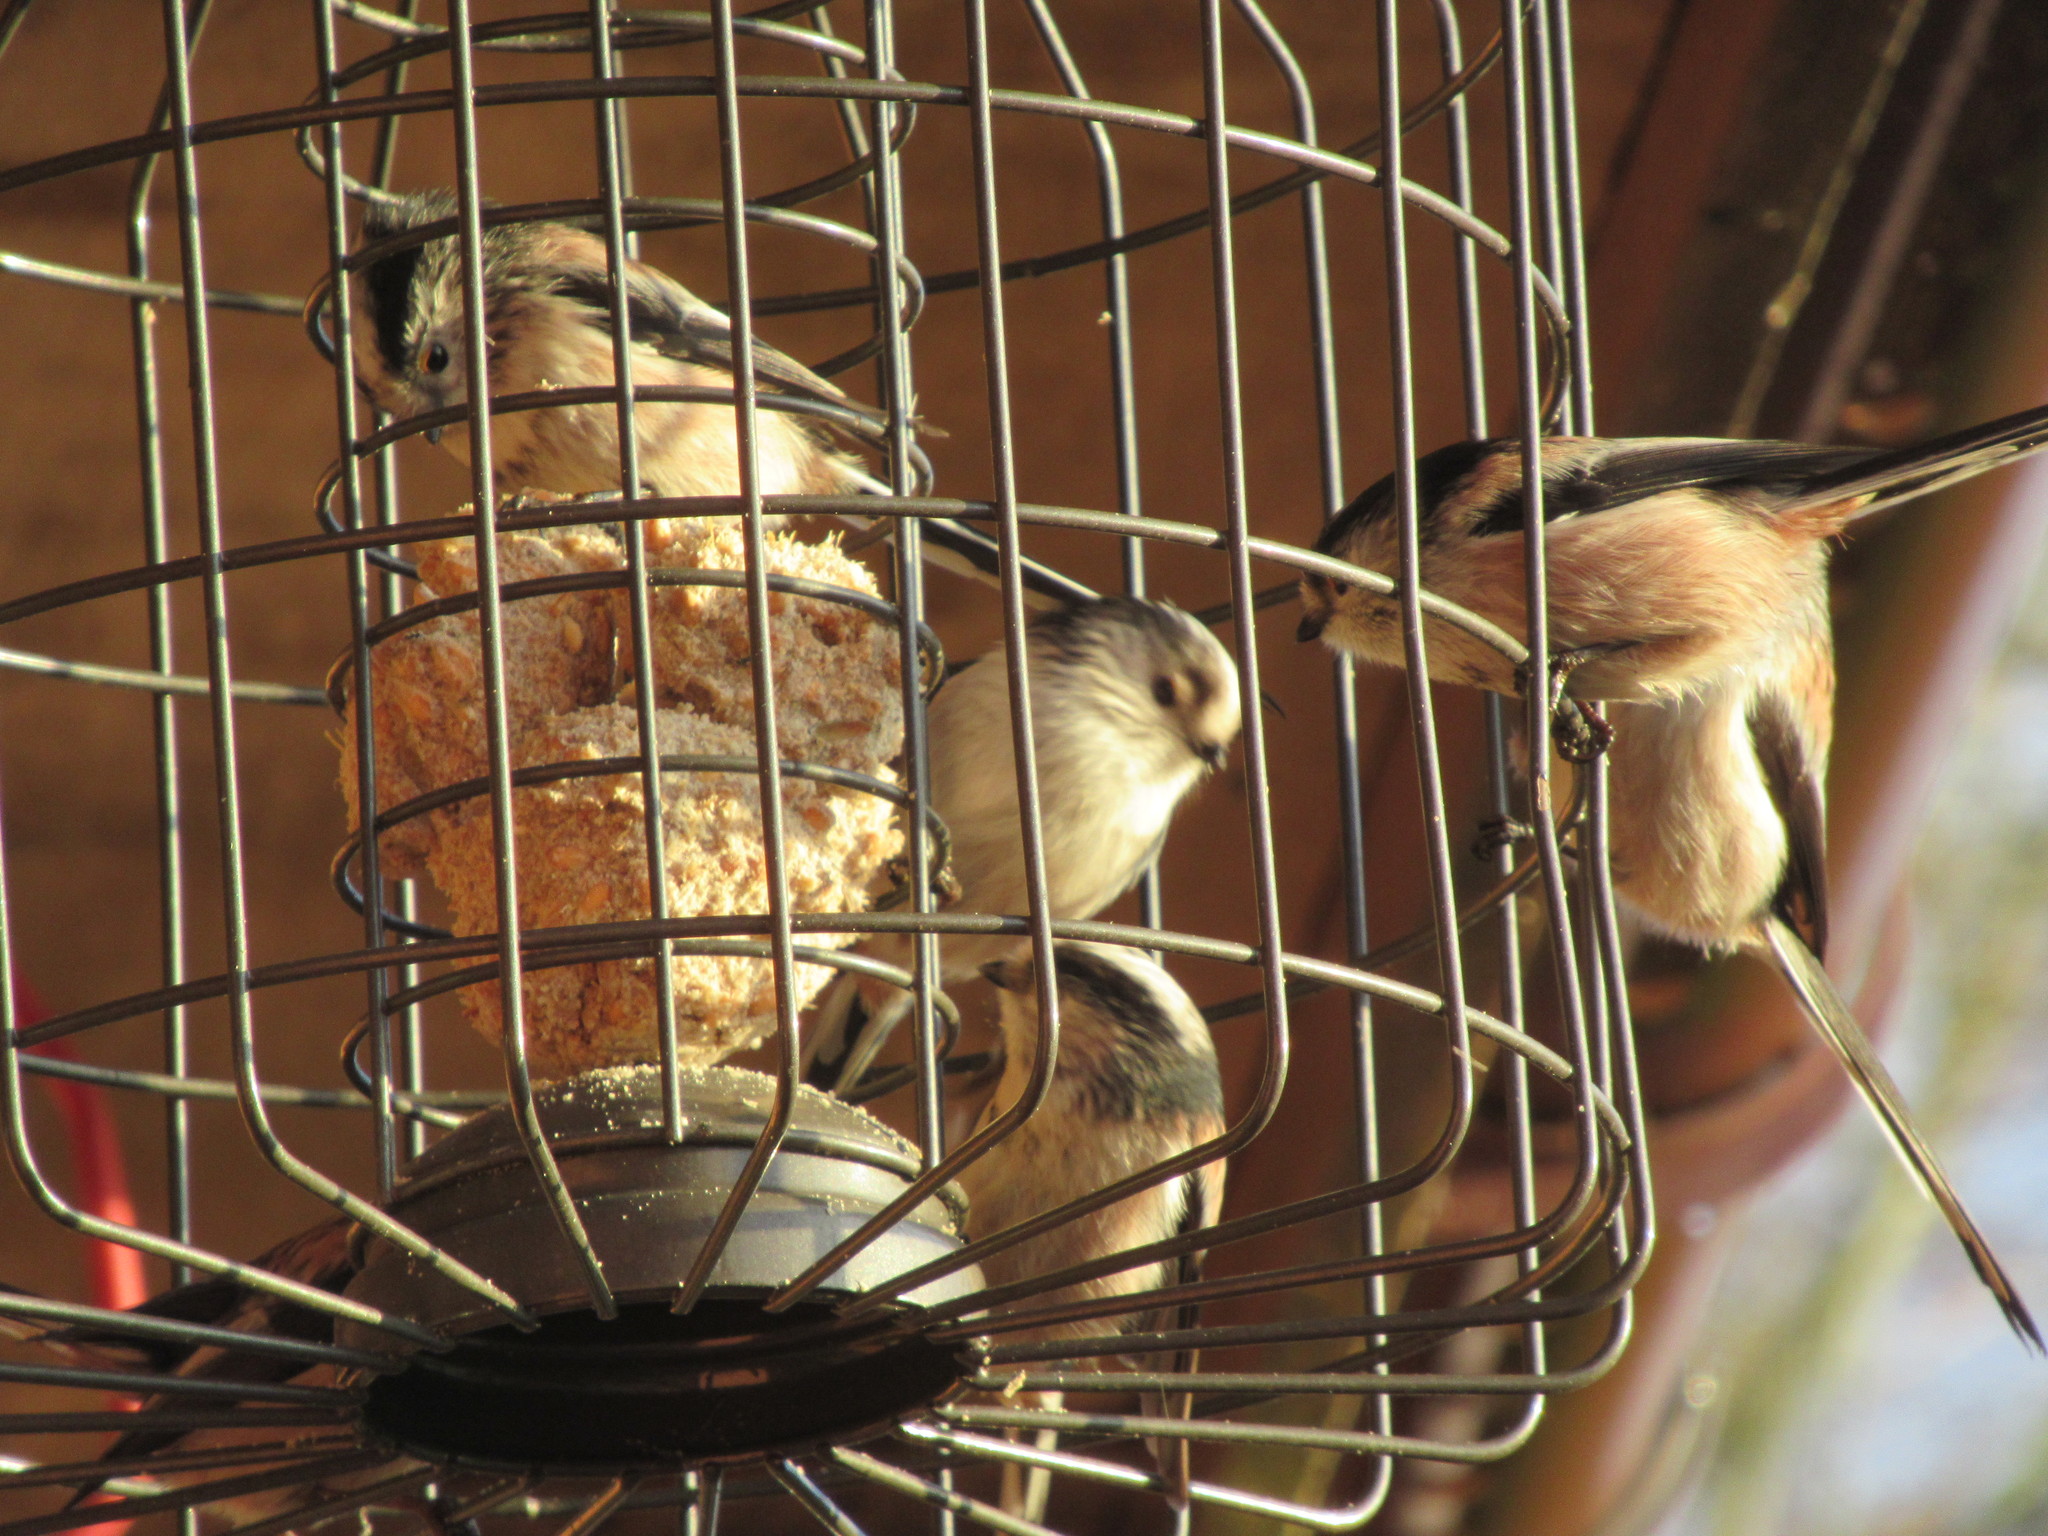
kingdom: Animalia
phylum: Chordata
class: Aves
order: Passeriformes
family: Aegithalidae
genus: Aegithalos
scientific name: Aegithalos caudatus
